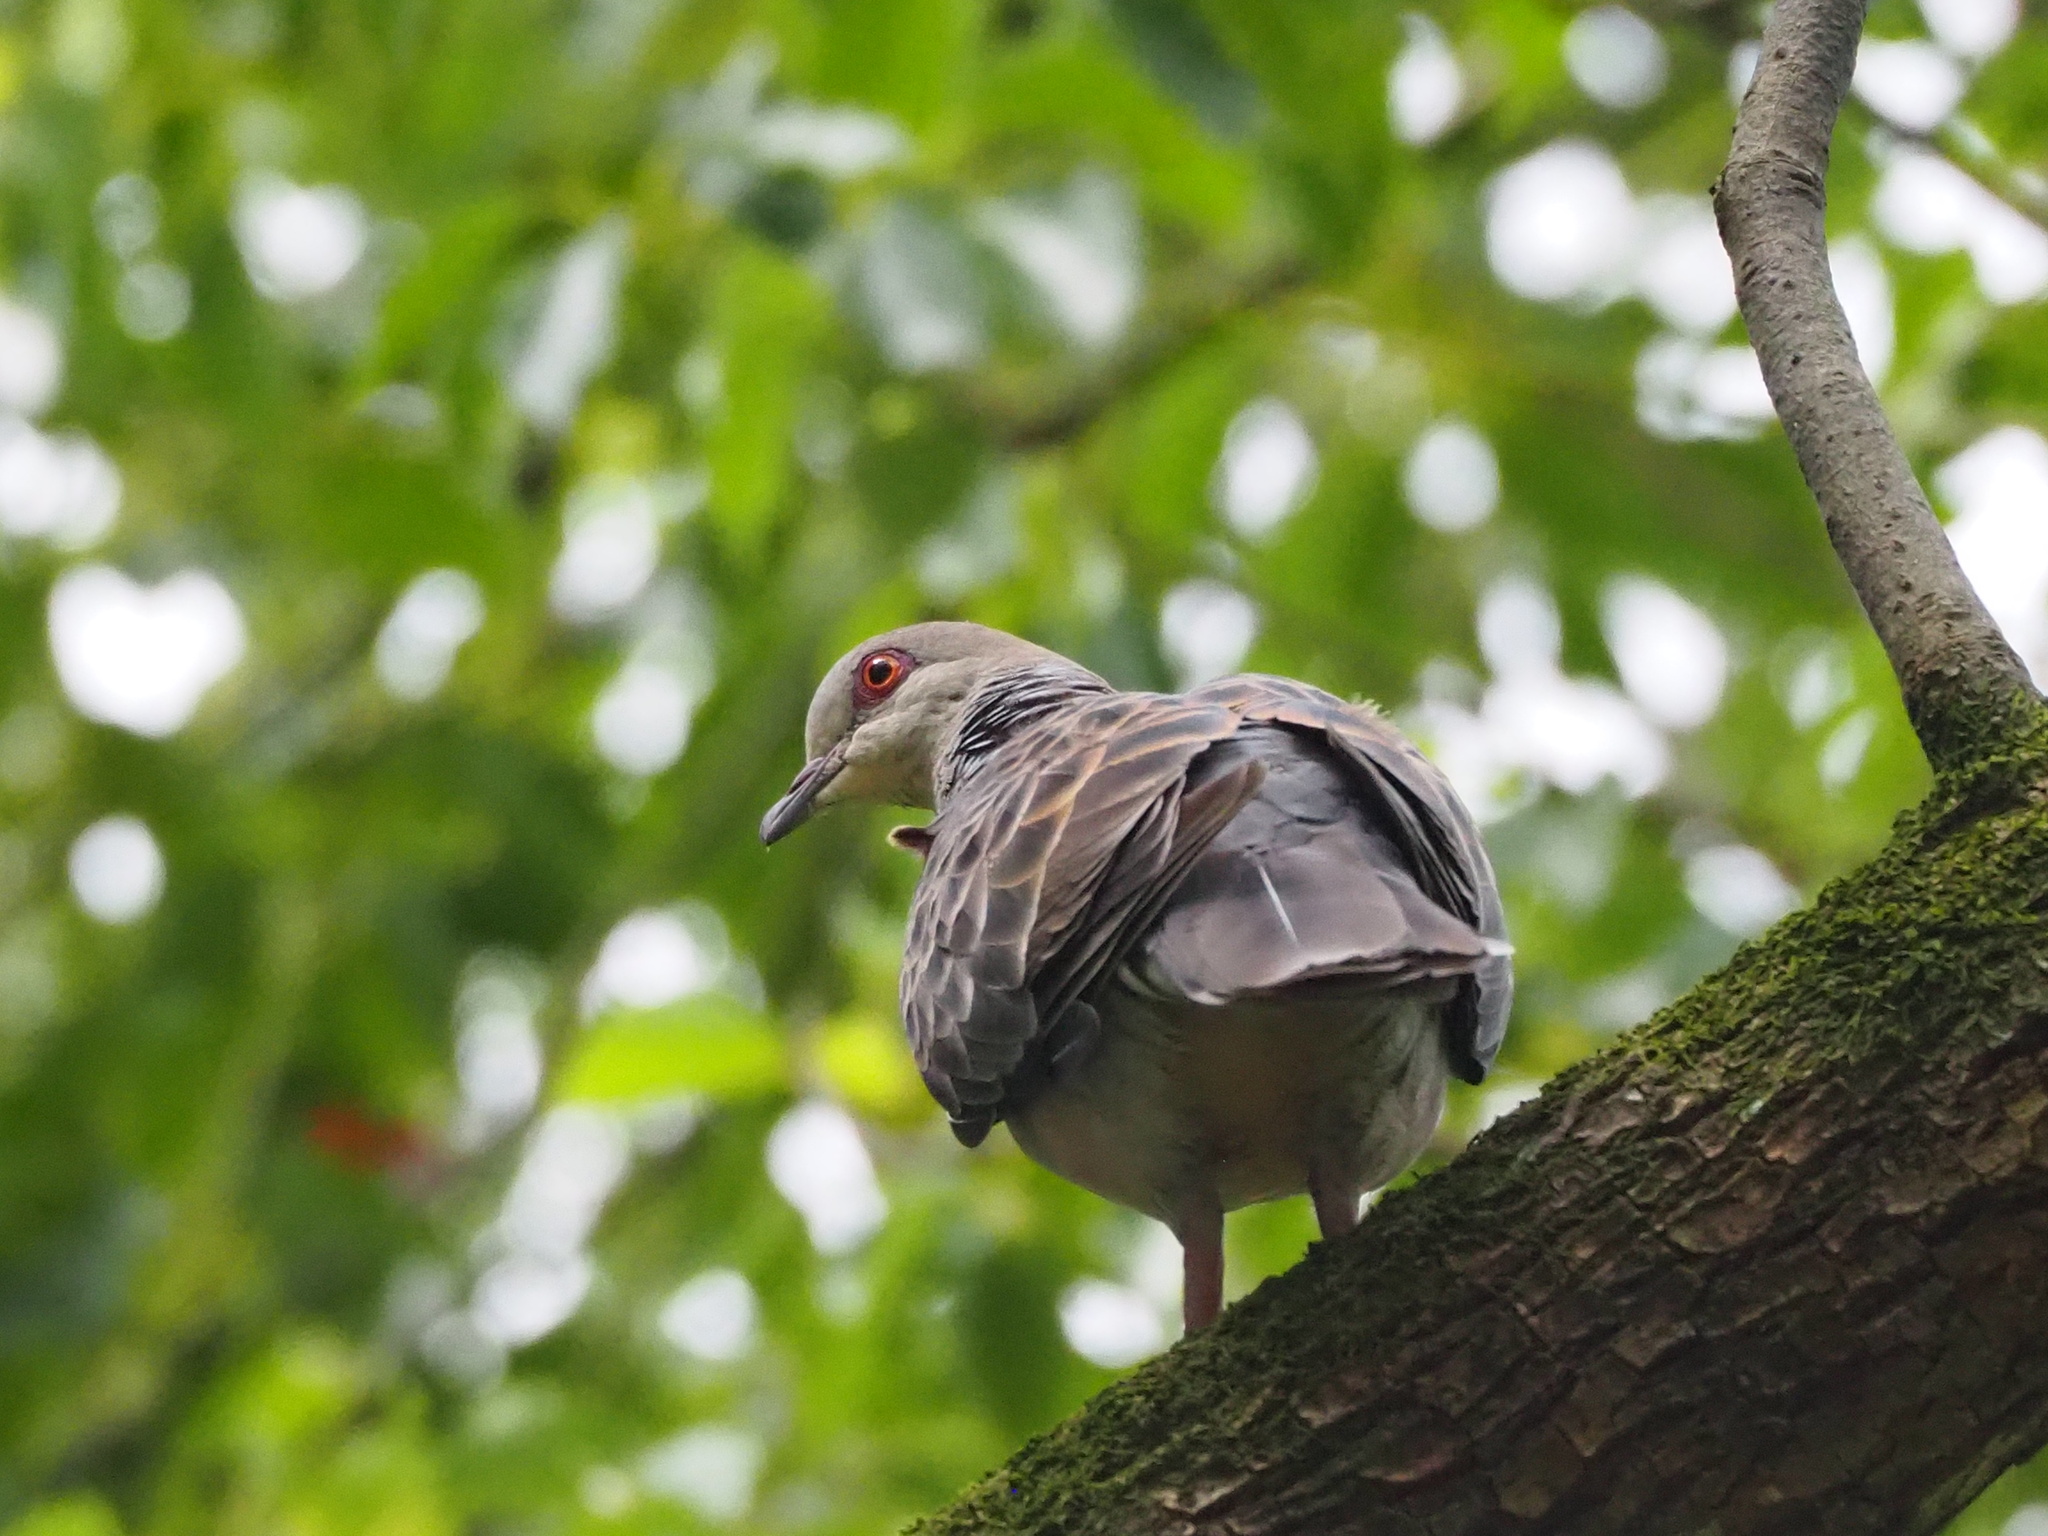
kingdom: Animalia
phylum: Chordata
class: Aves
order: Columbiformes
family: Columbidae
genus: Streptopelia
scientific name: Streptopelia orientalis
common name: Oriental turtle dove
